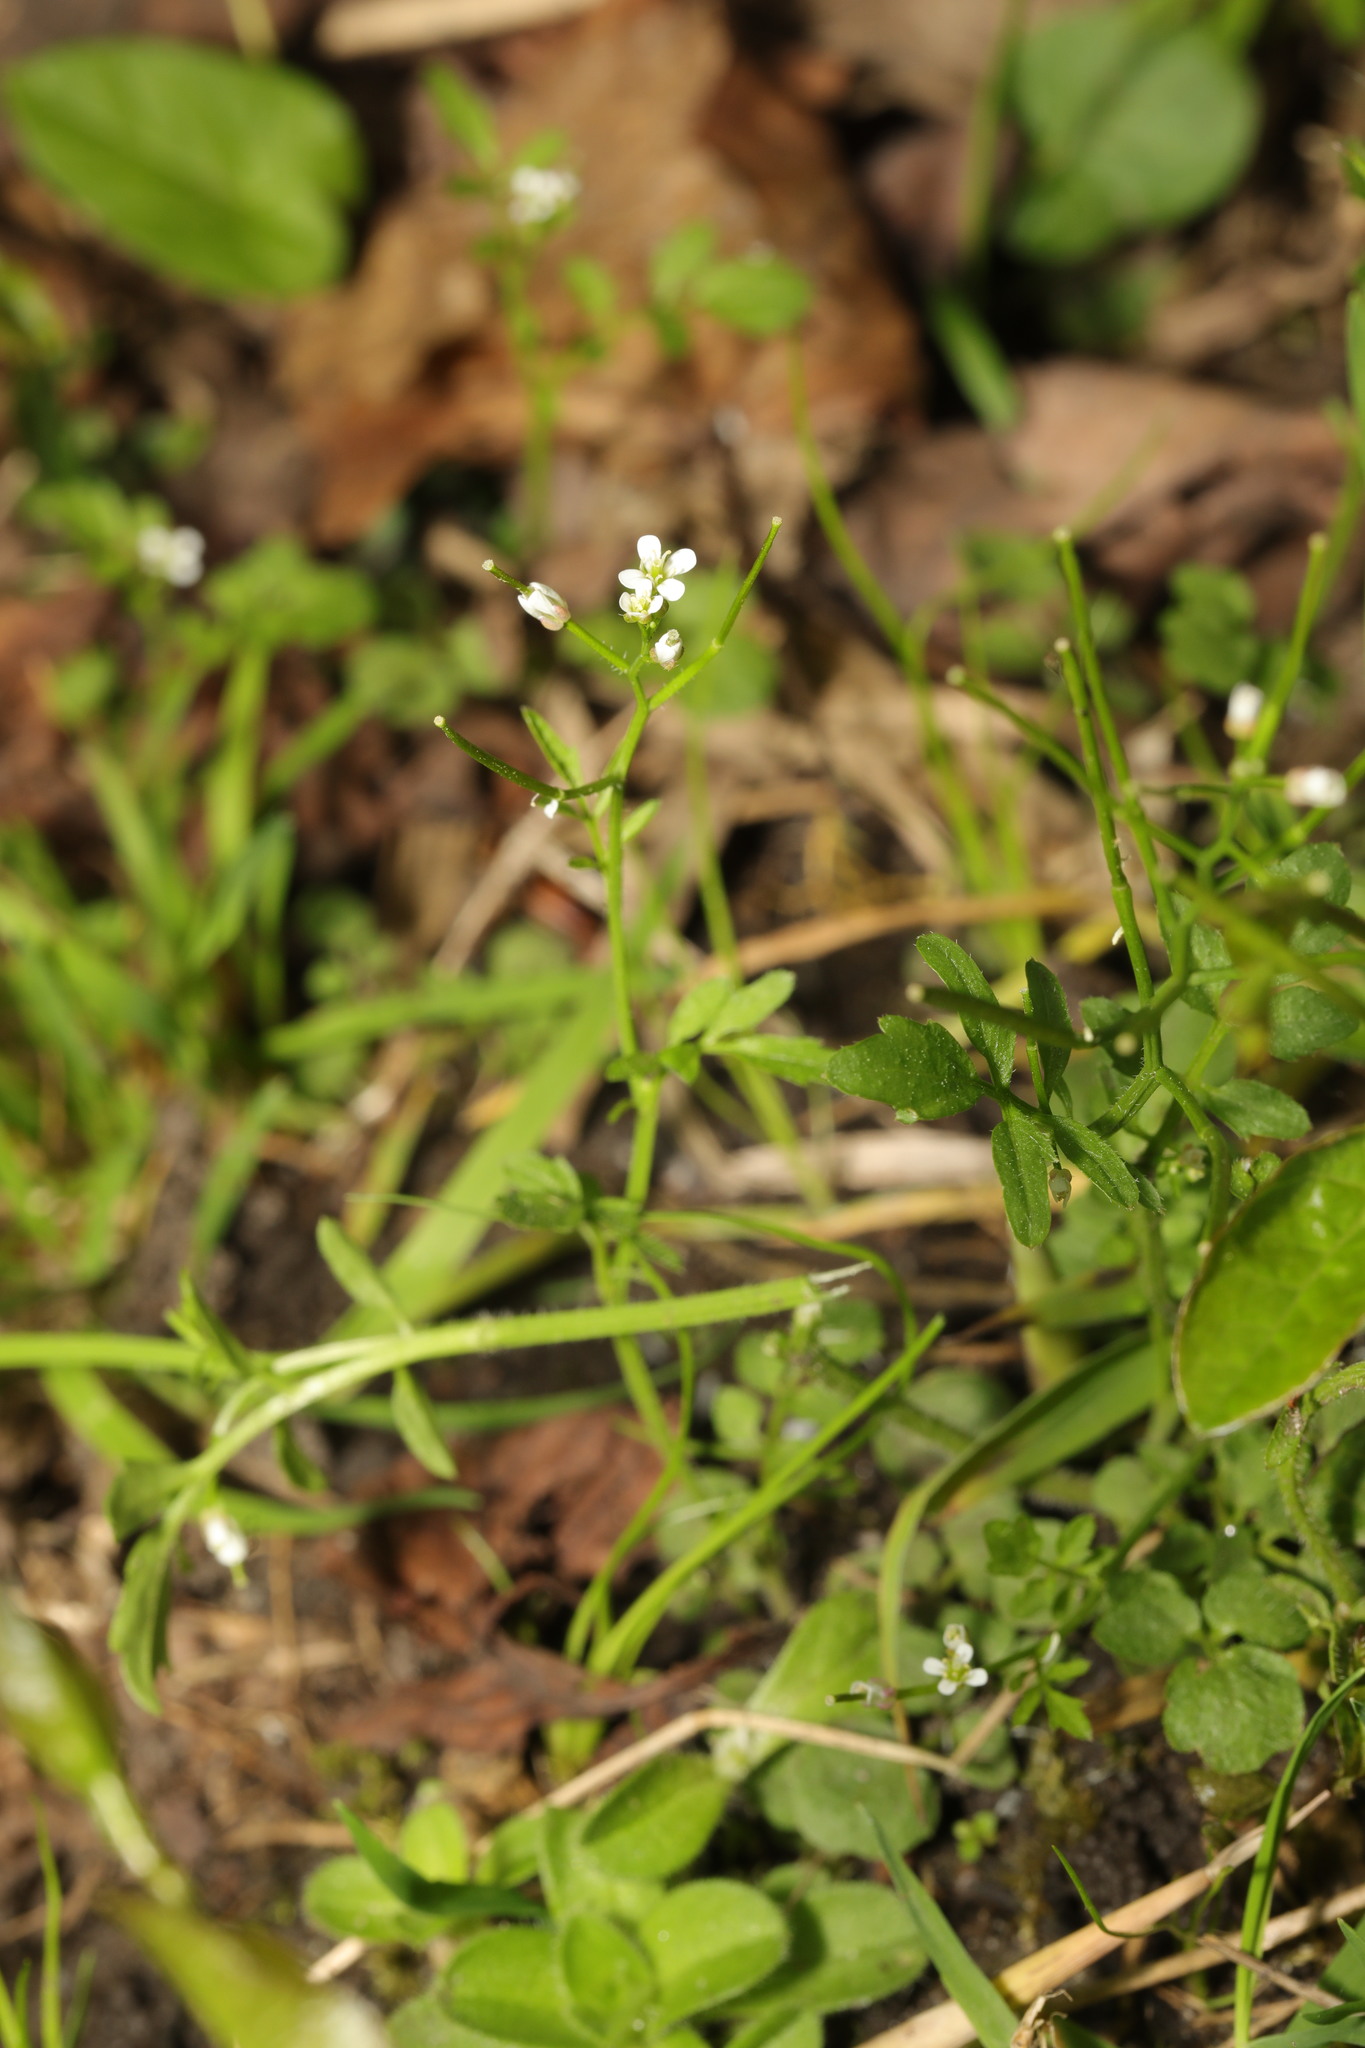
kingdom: Plantae
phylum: Tracheophyta
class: Magnoliopsida
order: Brassicales
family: Brassicaceae
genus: Cardamine
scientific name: Cardamine flexuosa
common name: Woodland bittercress
